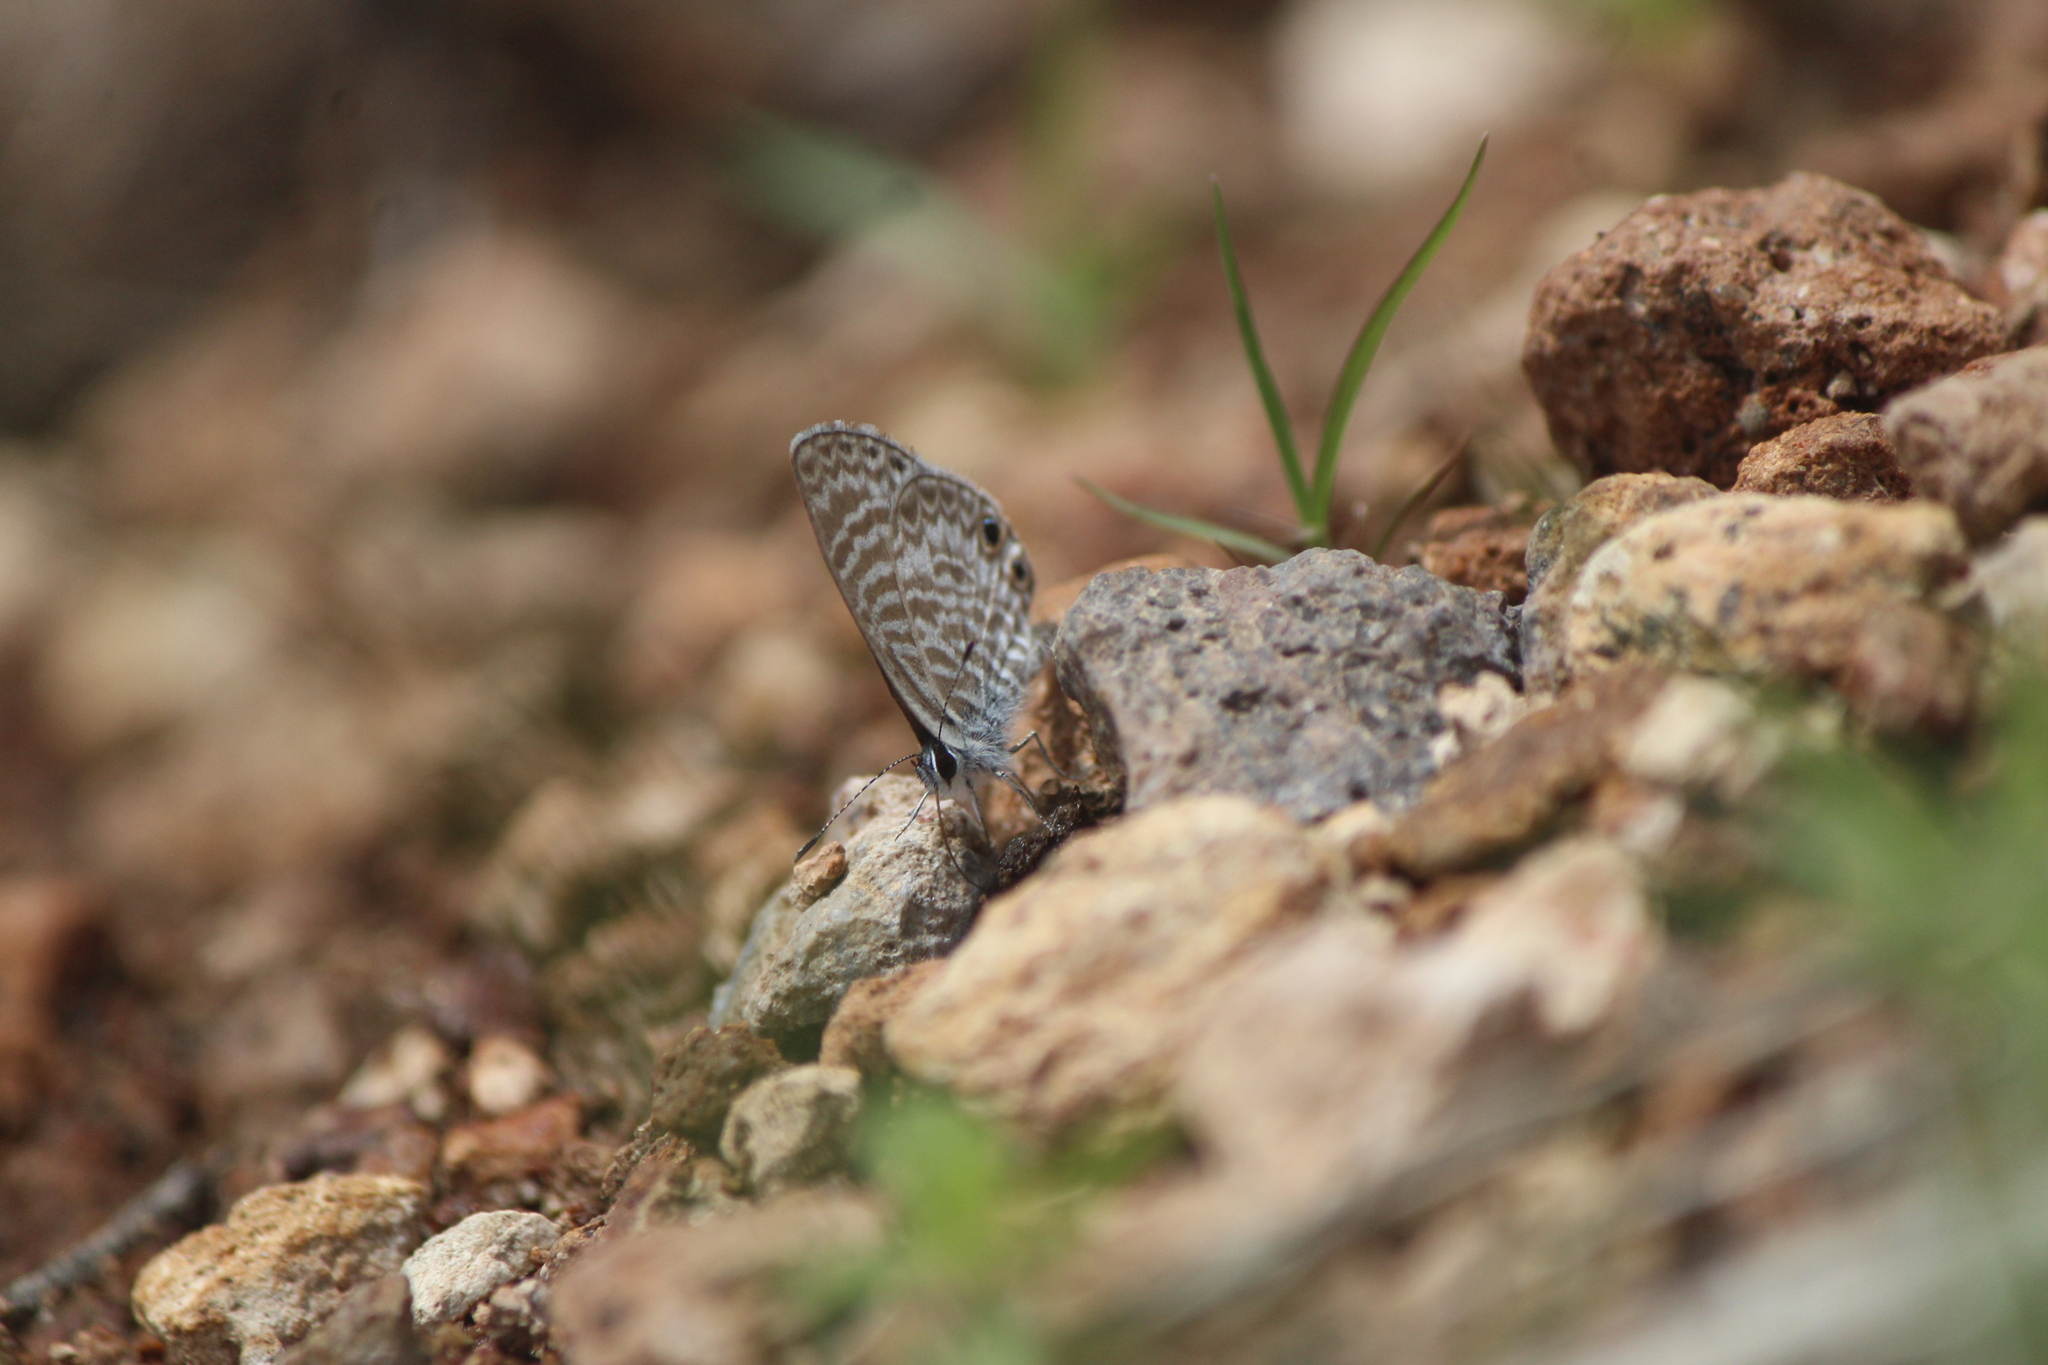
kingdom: Animalia
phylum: Arthropoda
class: Insecta
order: Lepidoptera
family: Lycaenidae
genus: Leptotes
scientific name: Leptotes marina
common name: Marine blue
